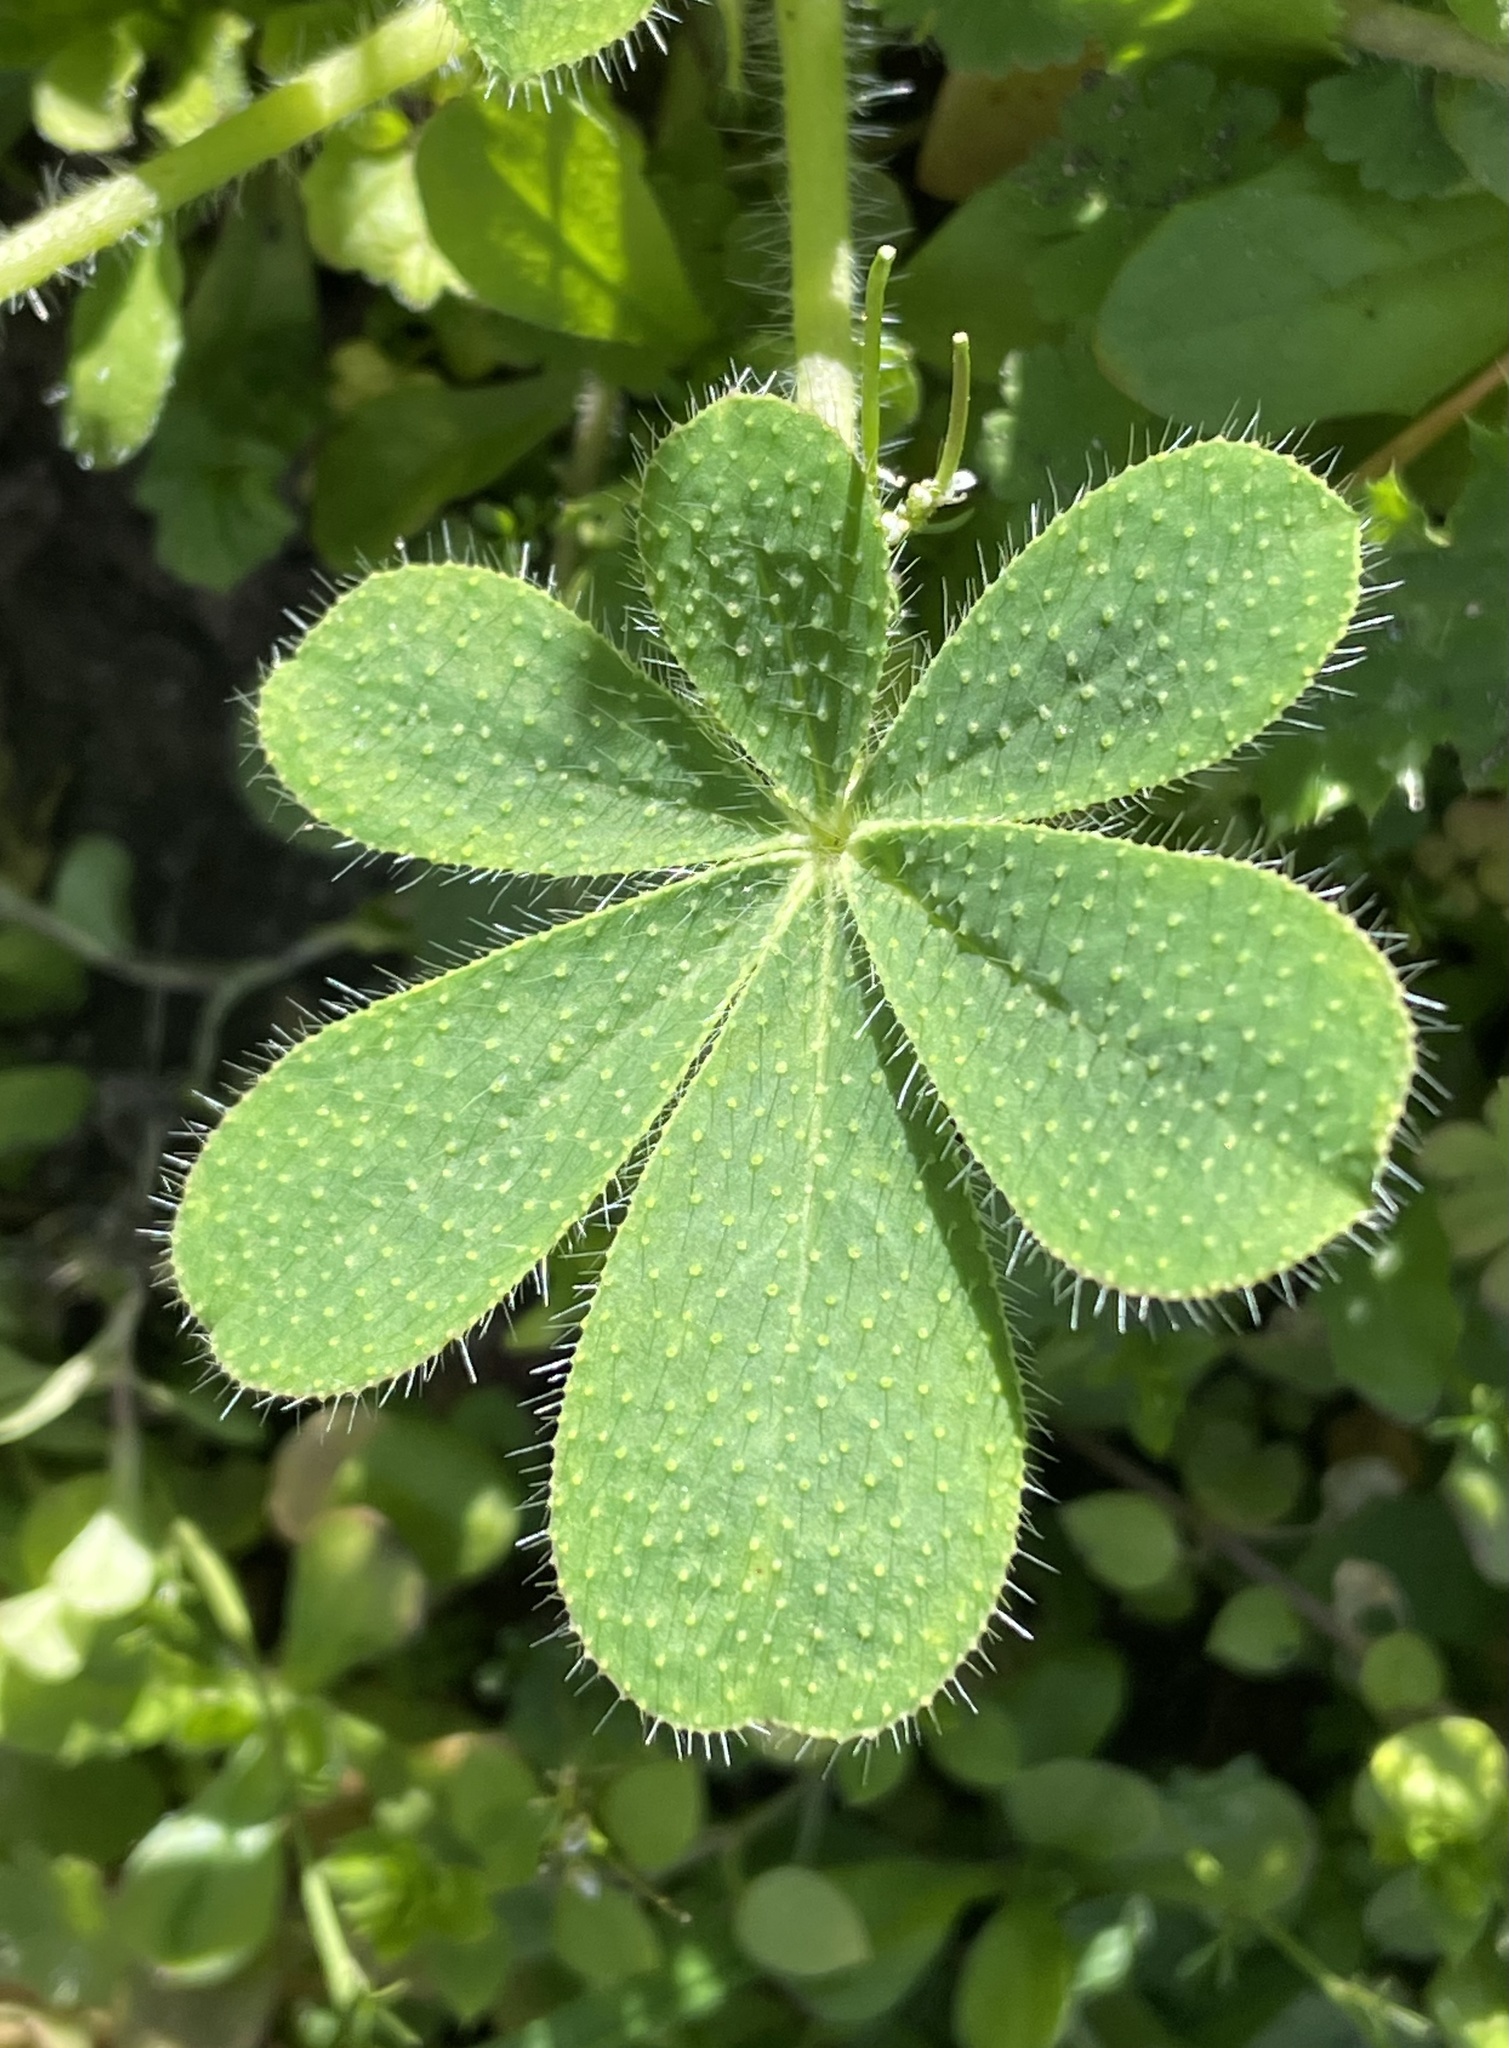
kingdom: Plantae
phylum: Tracheophyta
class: Magnoliopsida
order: Fabales
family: Fabaceae
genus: Lupinus
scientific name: Lupinus hirsutissimus
